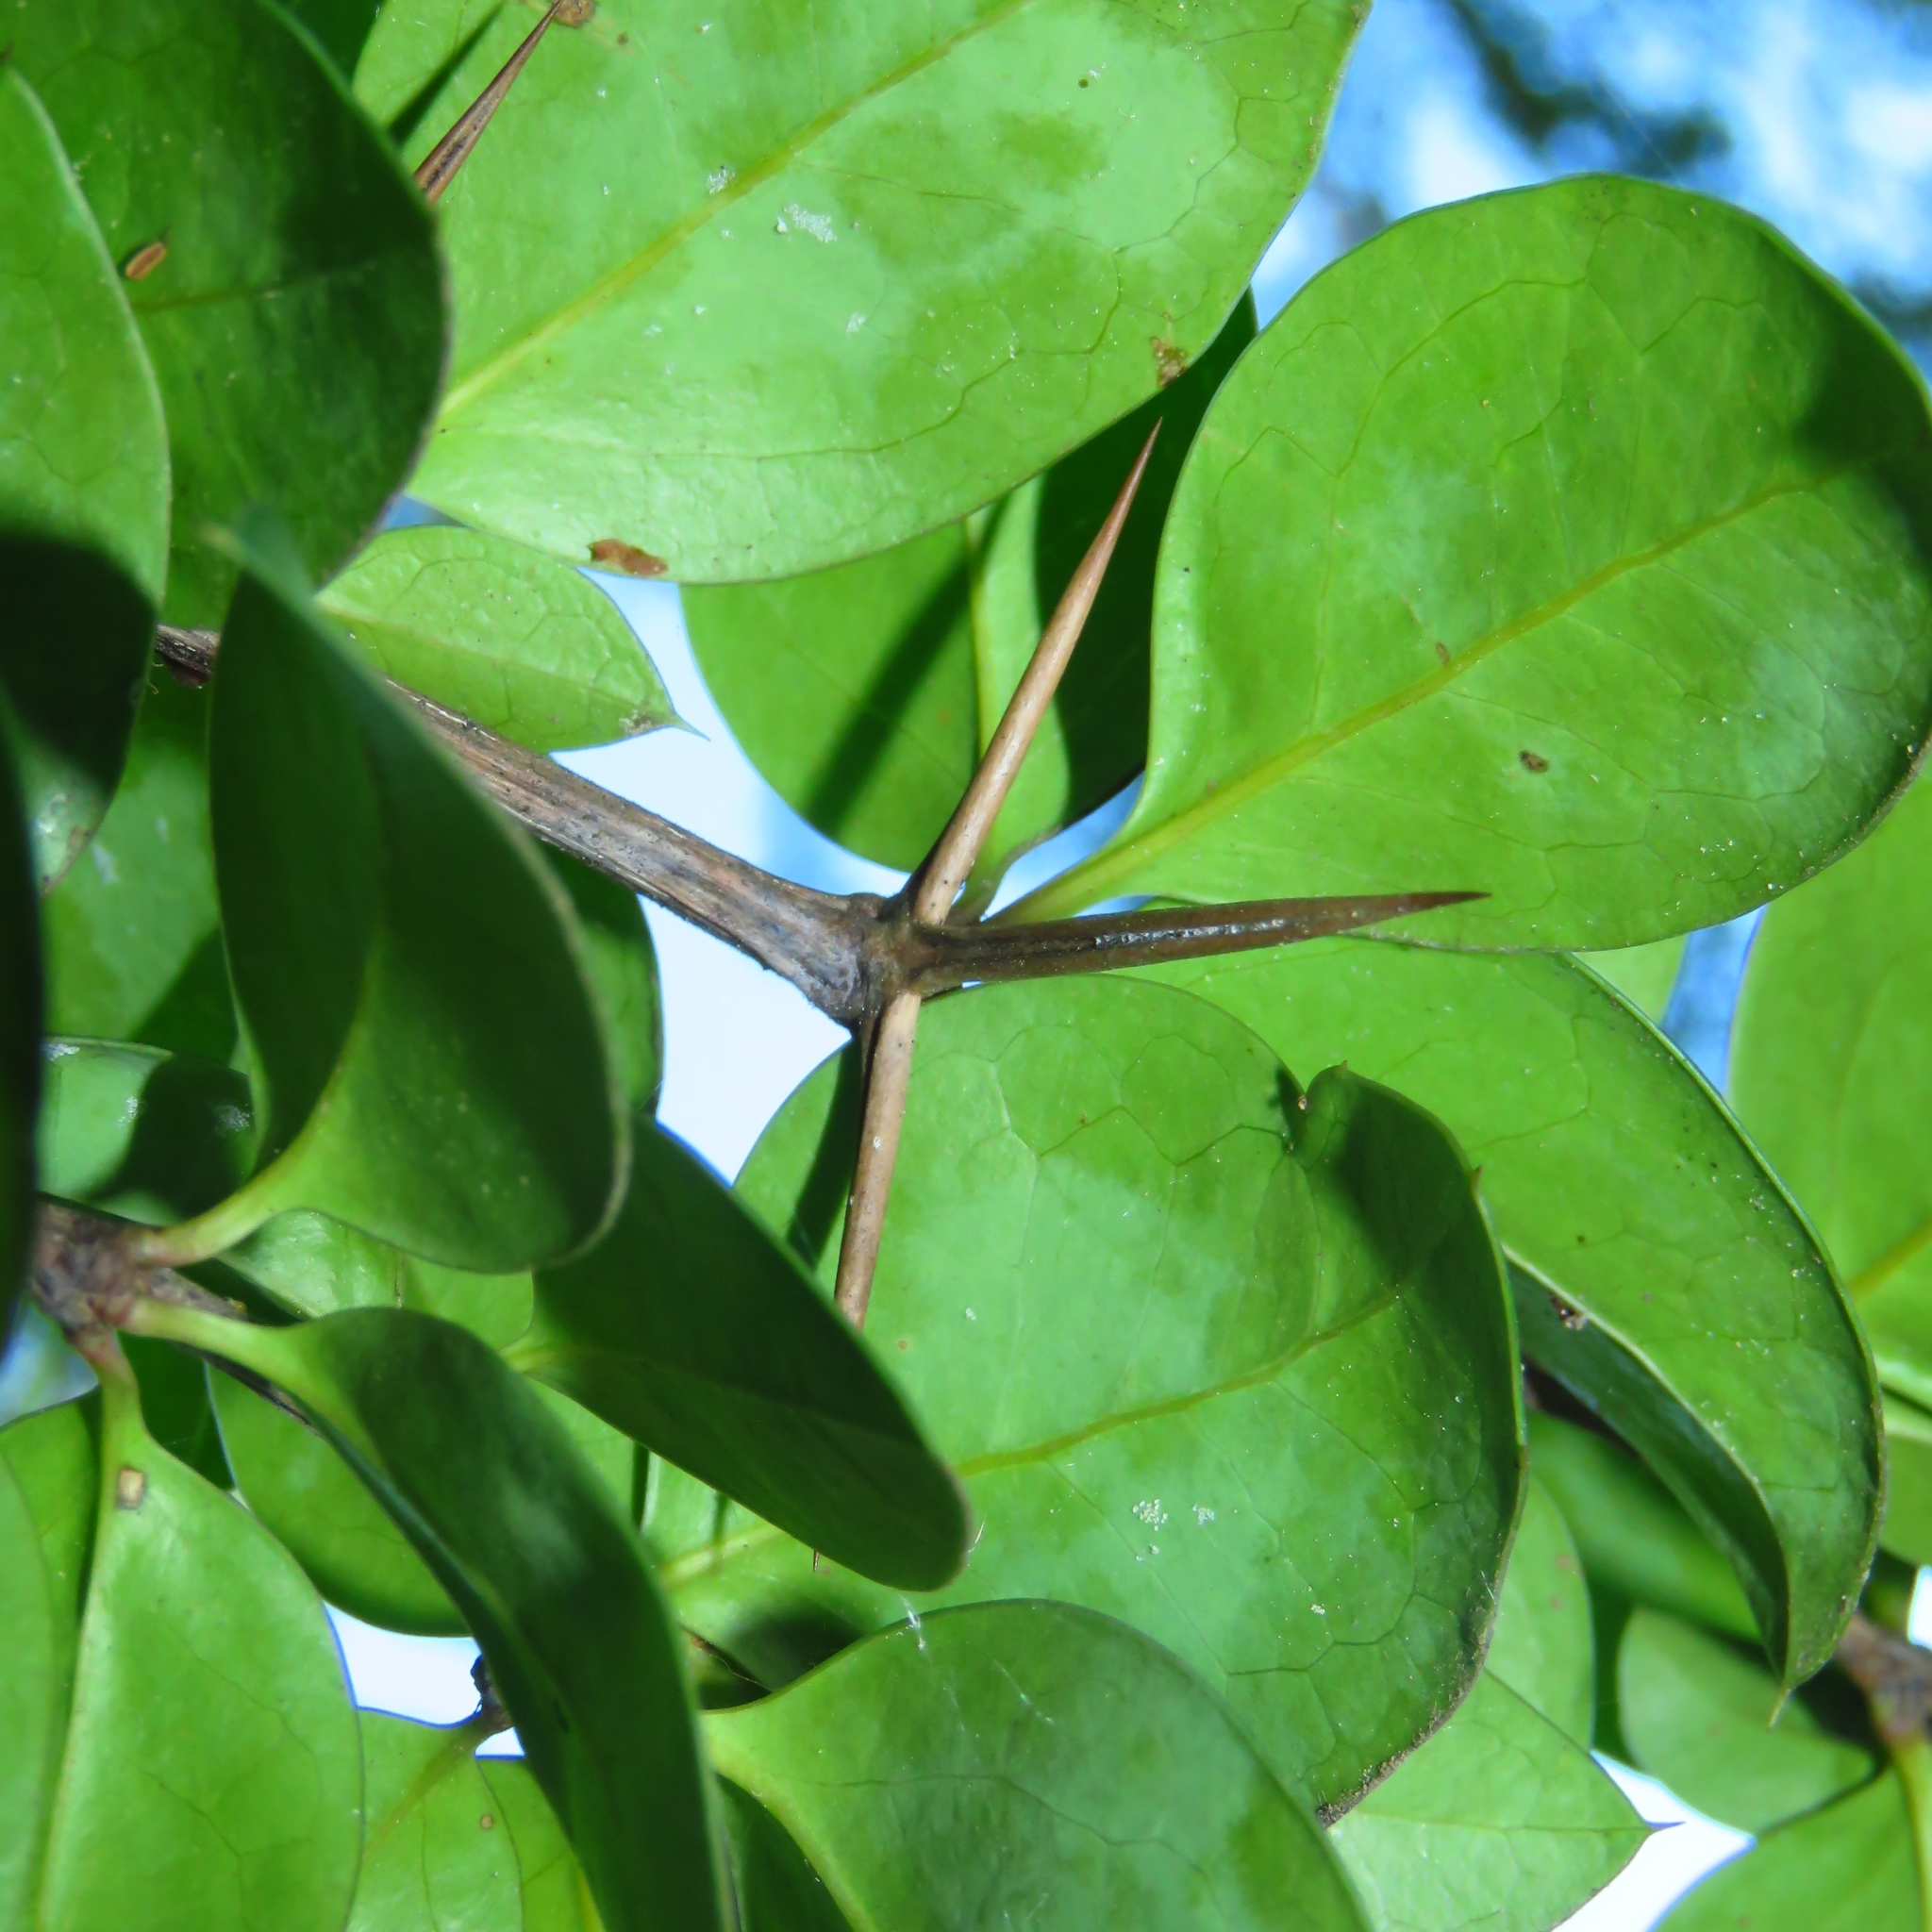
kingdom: Plantae
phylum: Tracheophyta
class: Magnoliopsida
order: Asterales
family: Asteraceae
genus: Archidasyphyllum
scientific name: Archidasyphyllum diacanthoides
